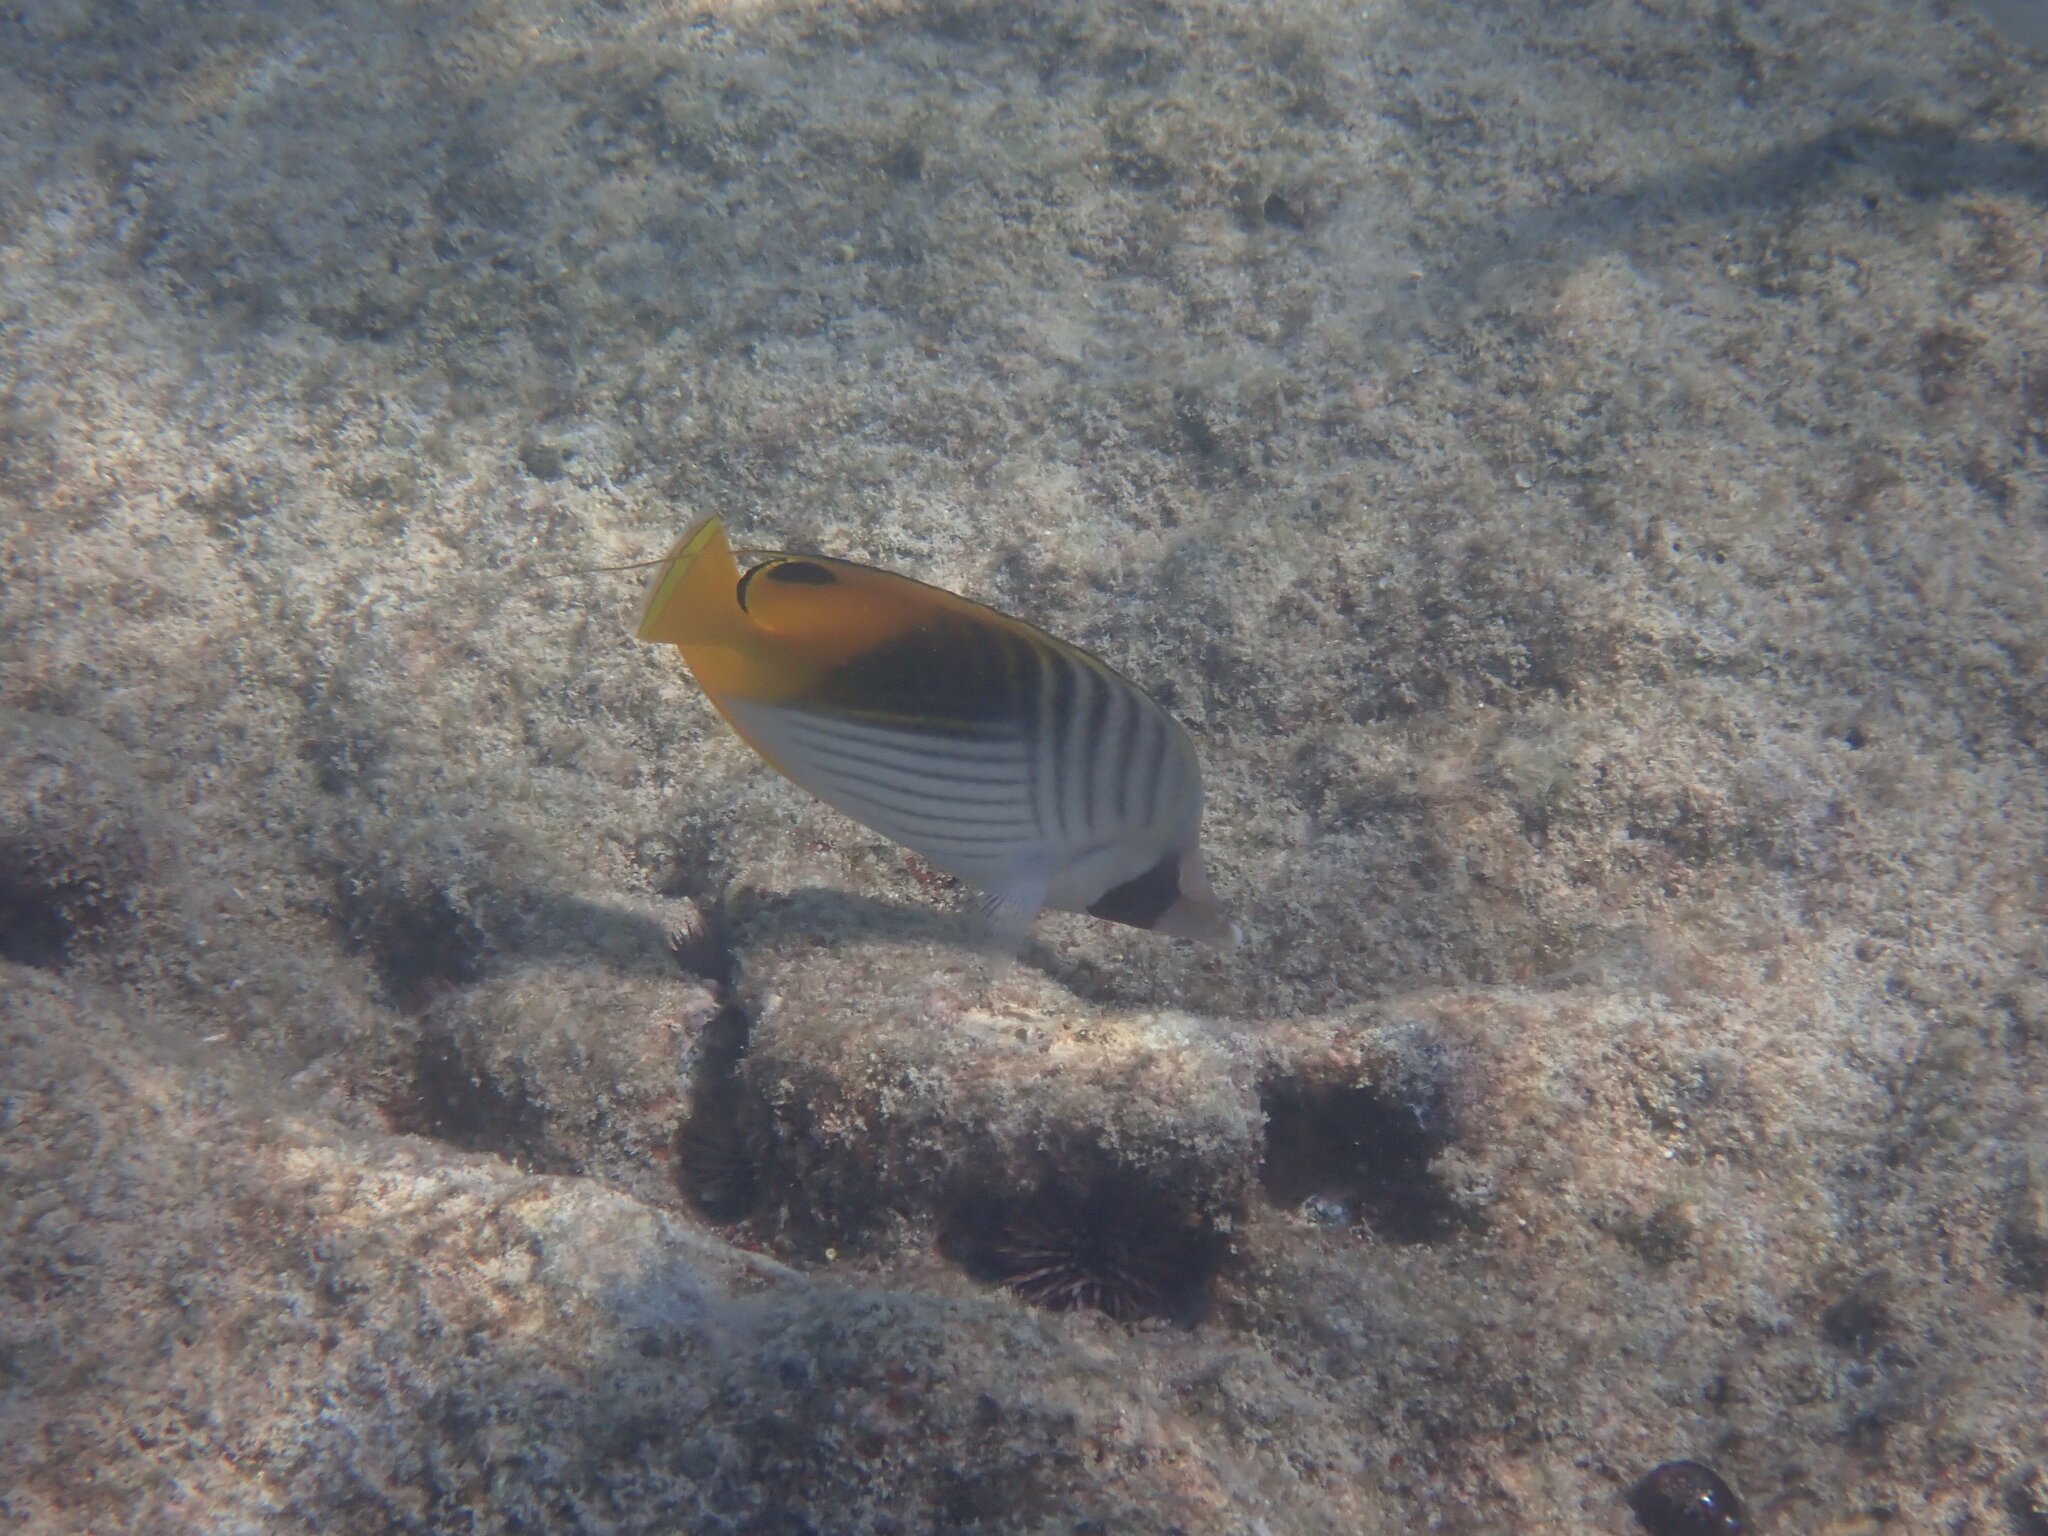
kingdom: Animalia
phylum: Chordata
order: Perciformes
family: Chaetodontidae
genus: Chaetodon
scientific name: Chaetodon auriga
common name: Threadfin butterflyfish
